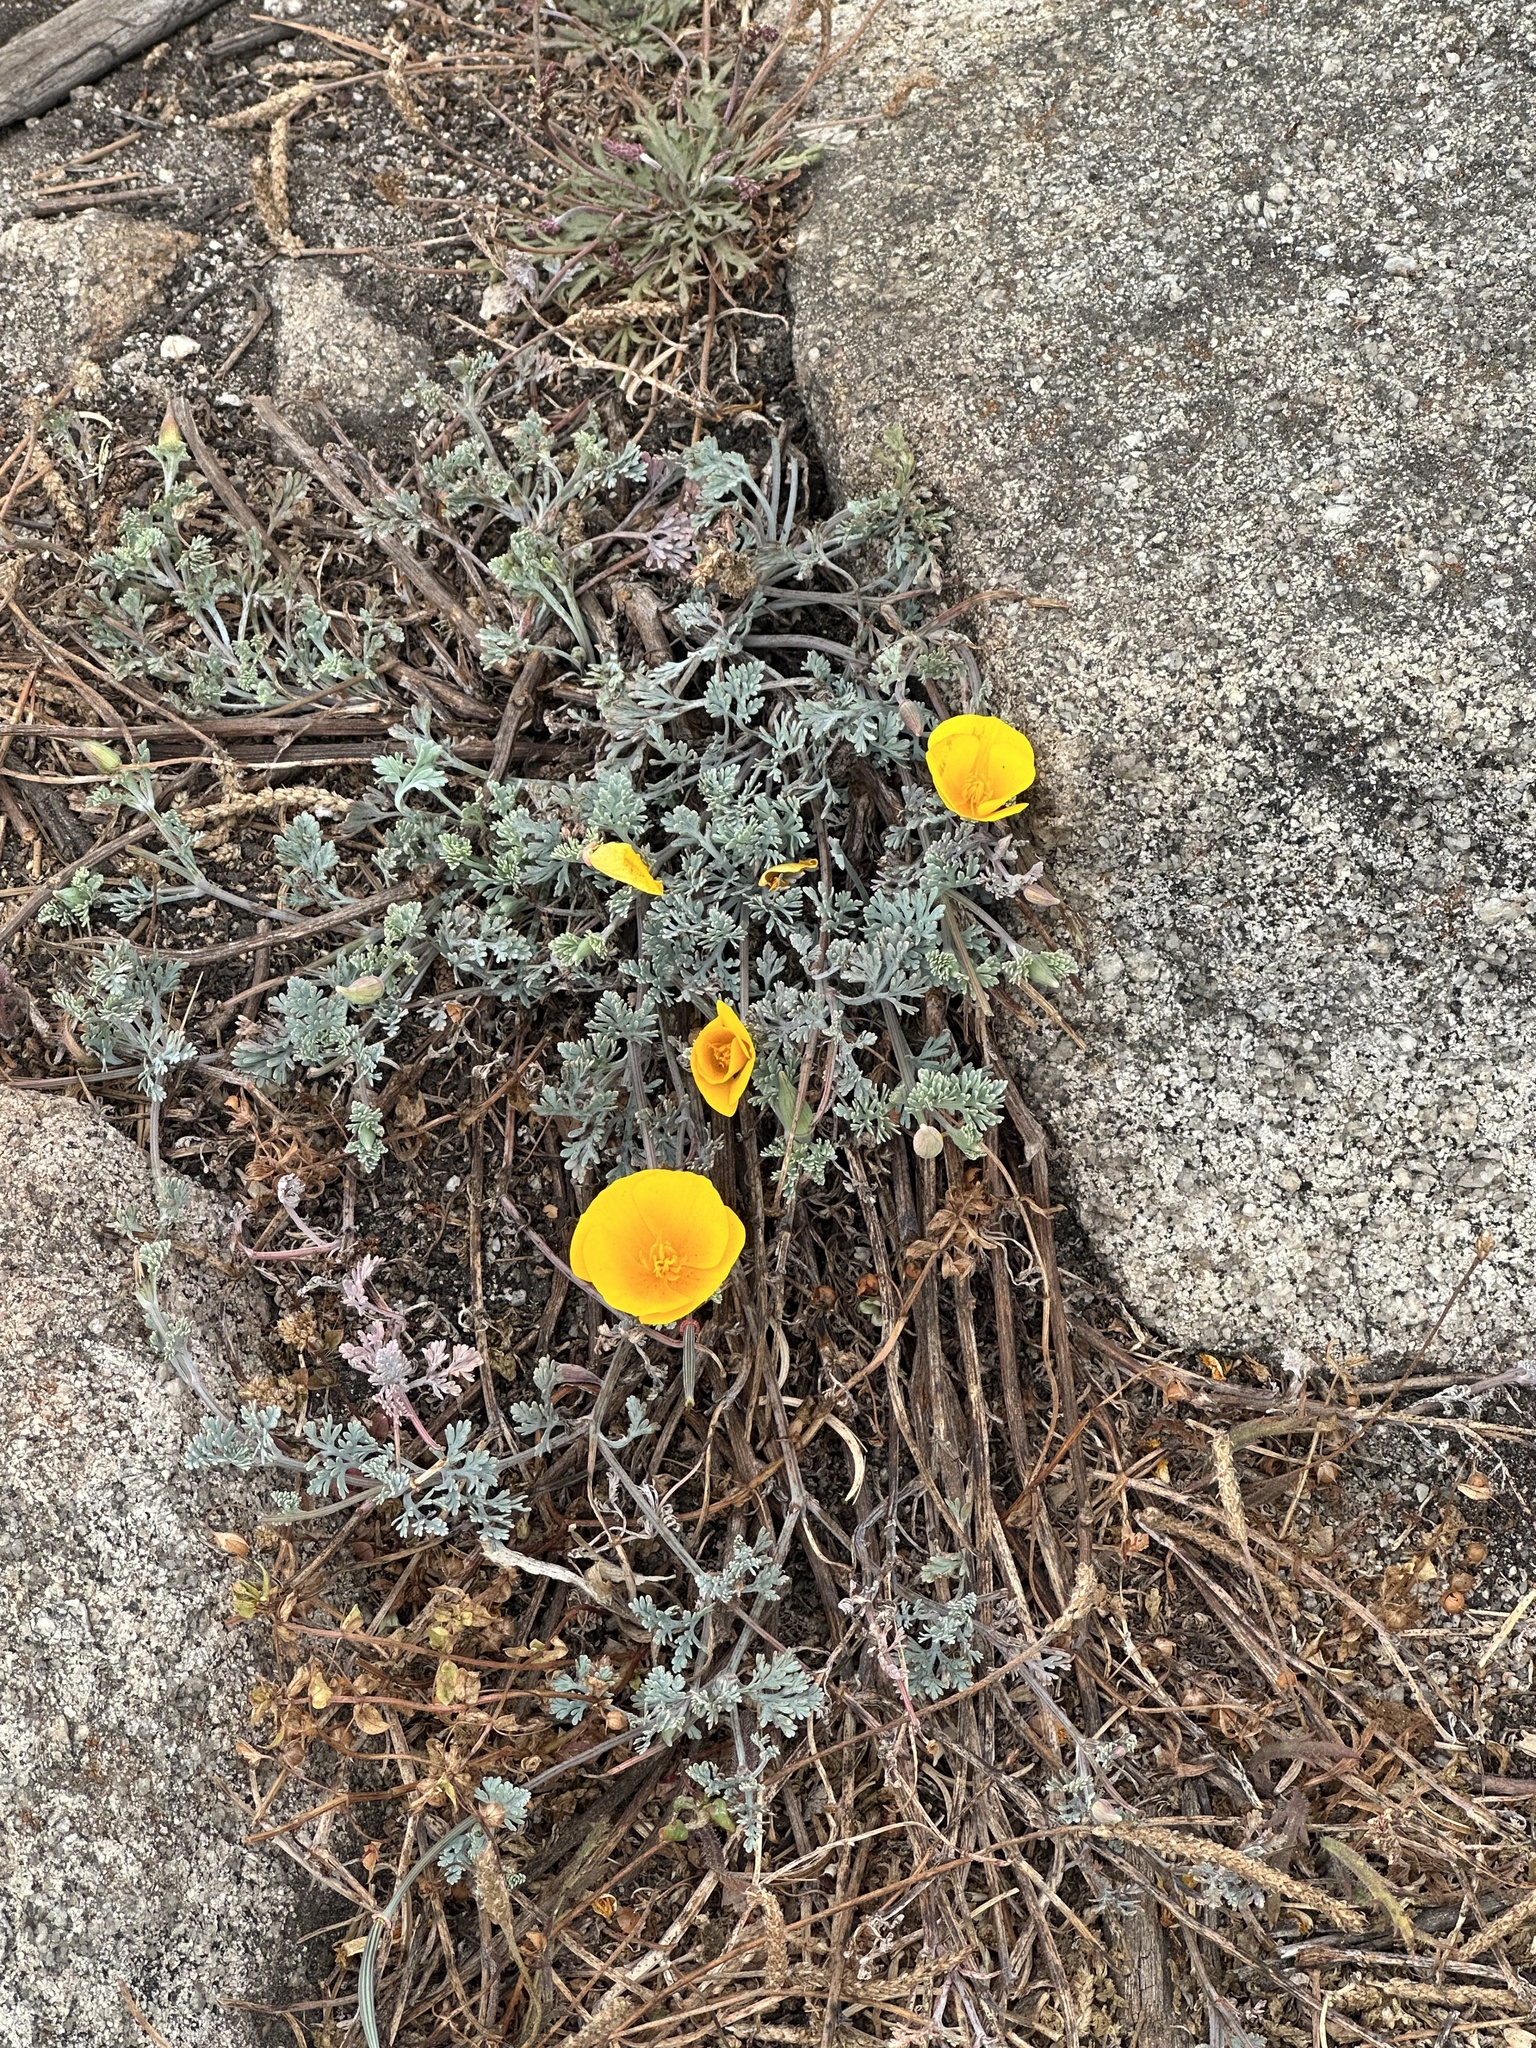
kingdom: Plantae
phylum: Tracheophyta
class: Magnoliopsida
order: Ranunculales
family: Papaveraceae
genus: Eschscholzia
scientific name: Eschscholzia californica
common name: California poppy
